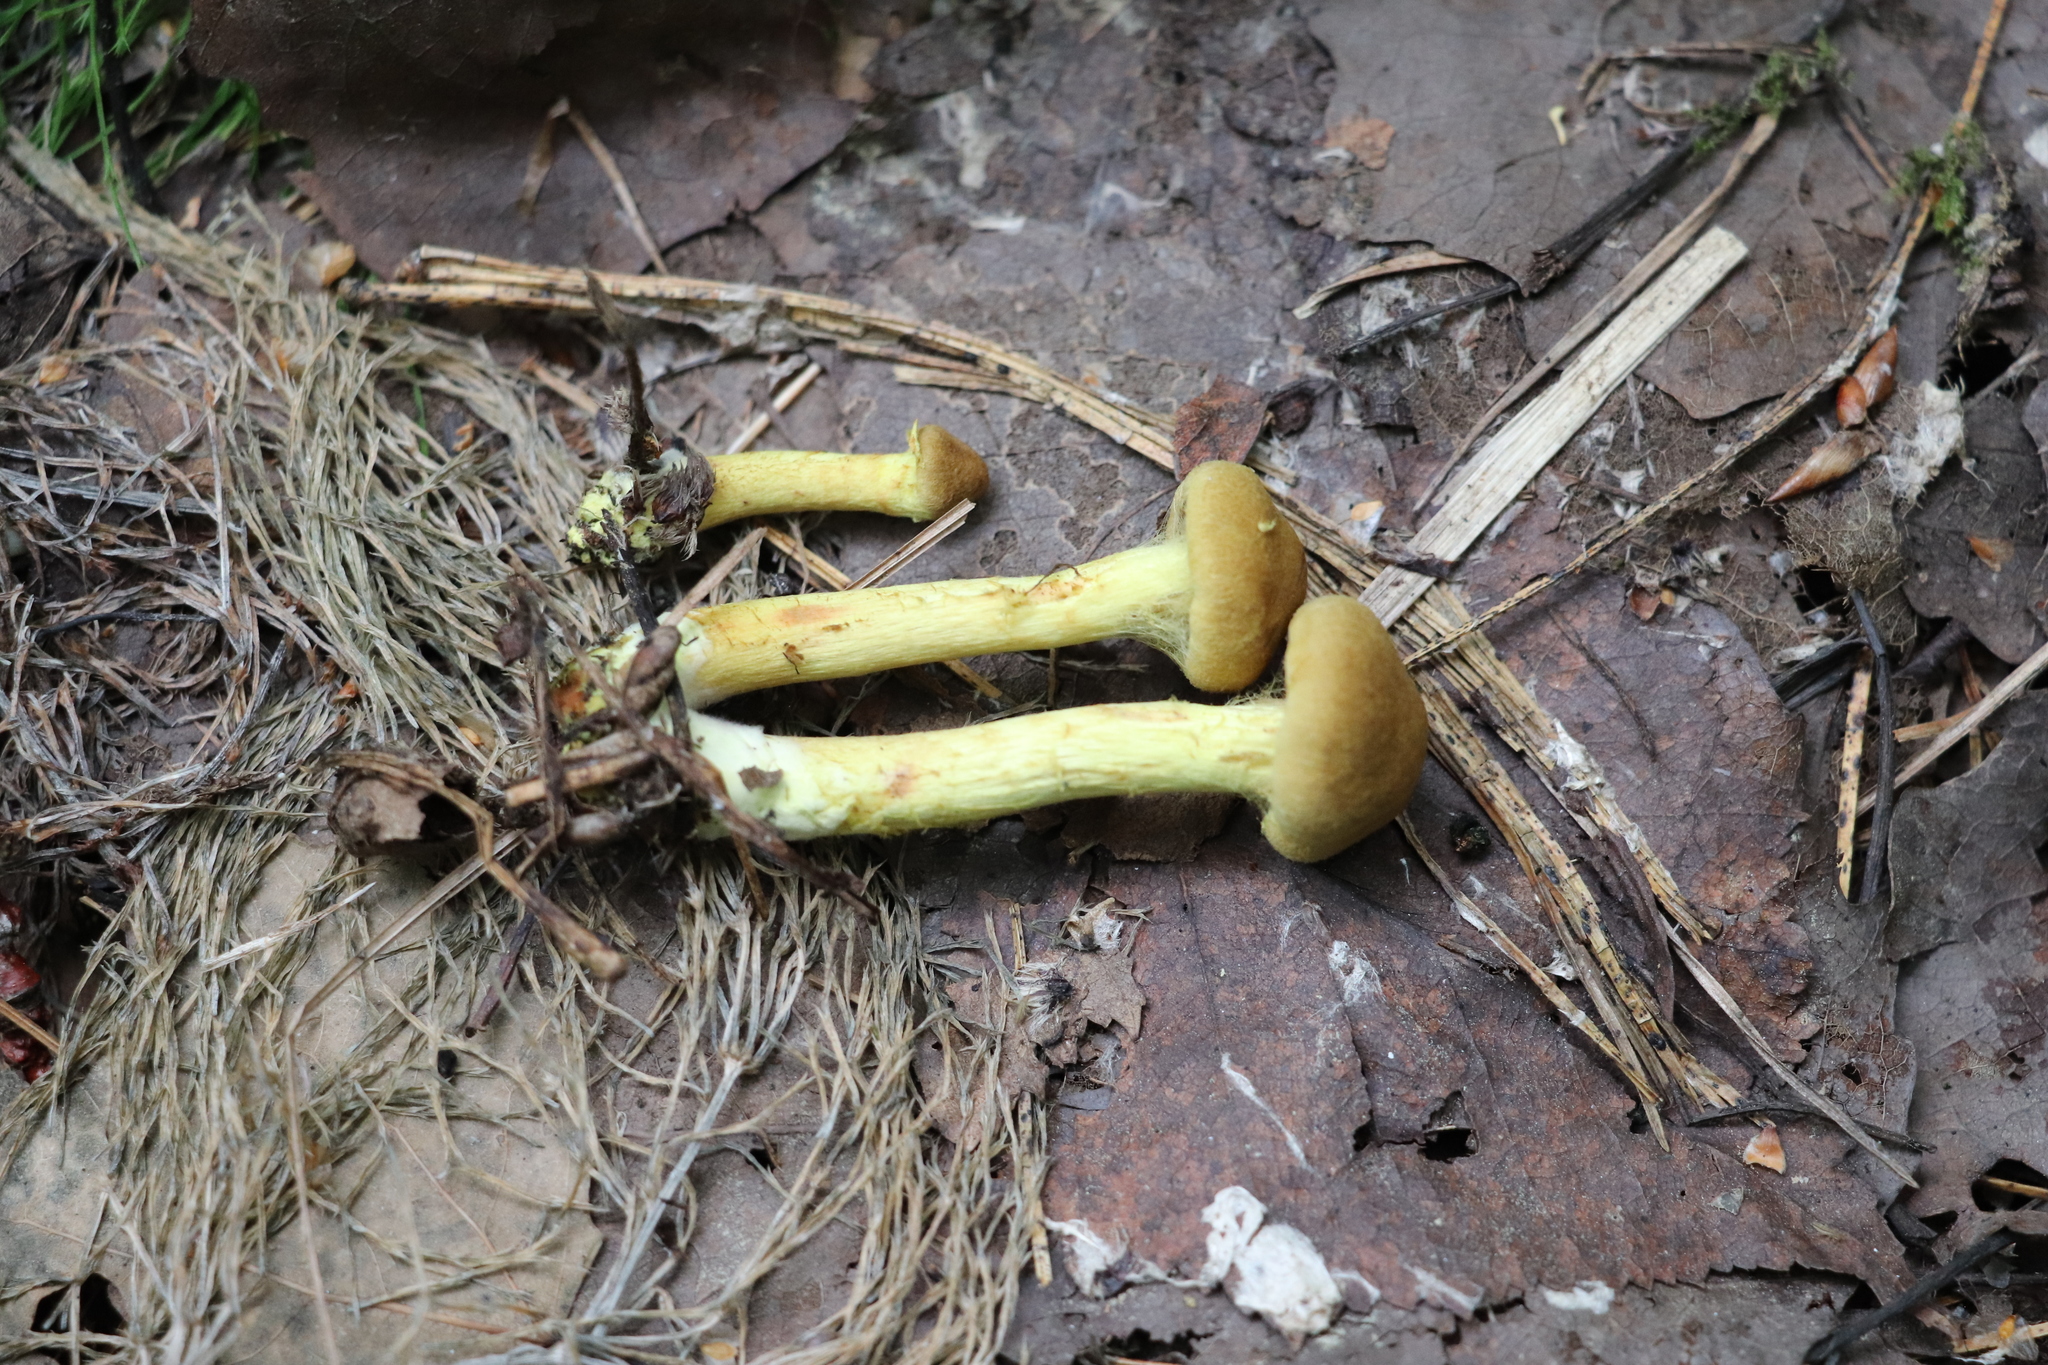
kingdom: Fungi
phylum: Basidiomycota
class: Agaricomycetes
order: Agaricales
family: Cortinariaceae
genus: Cortinarius
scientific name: Cortinarius cinnamomeus
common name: Cinnamon webcap
